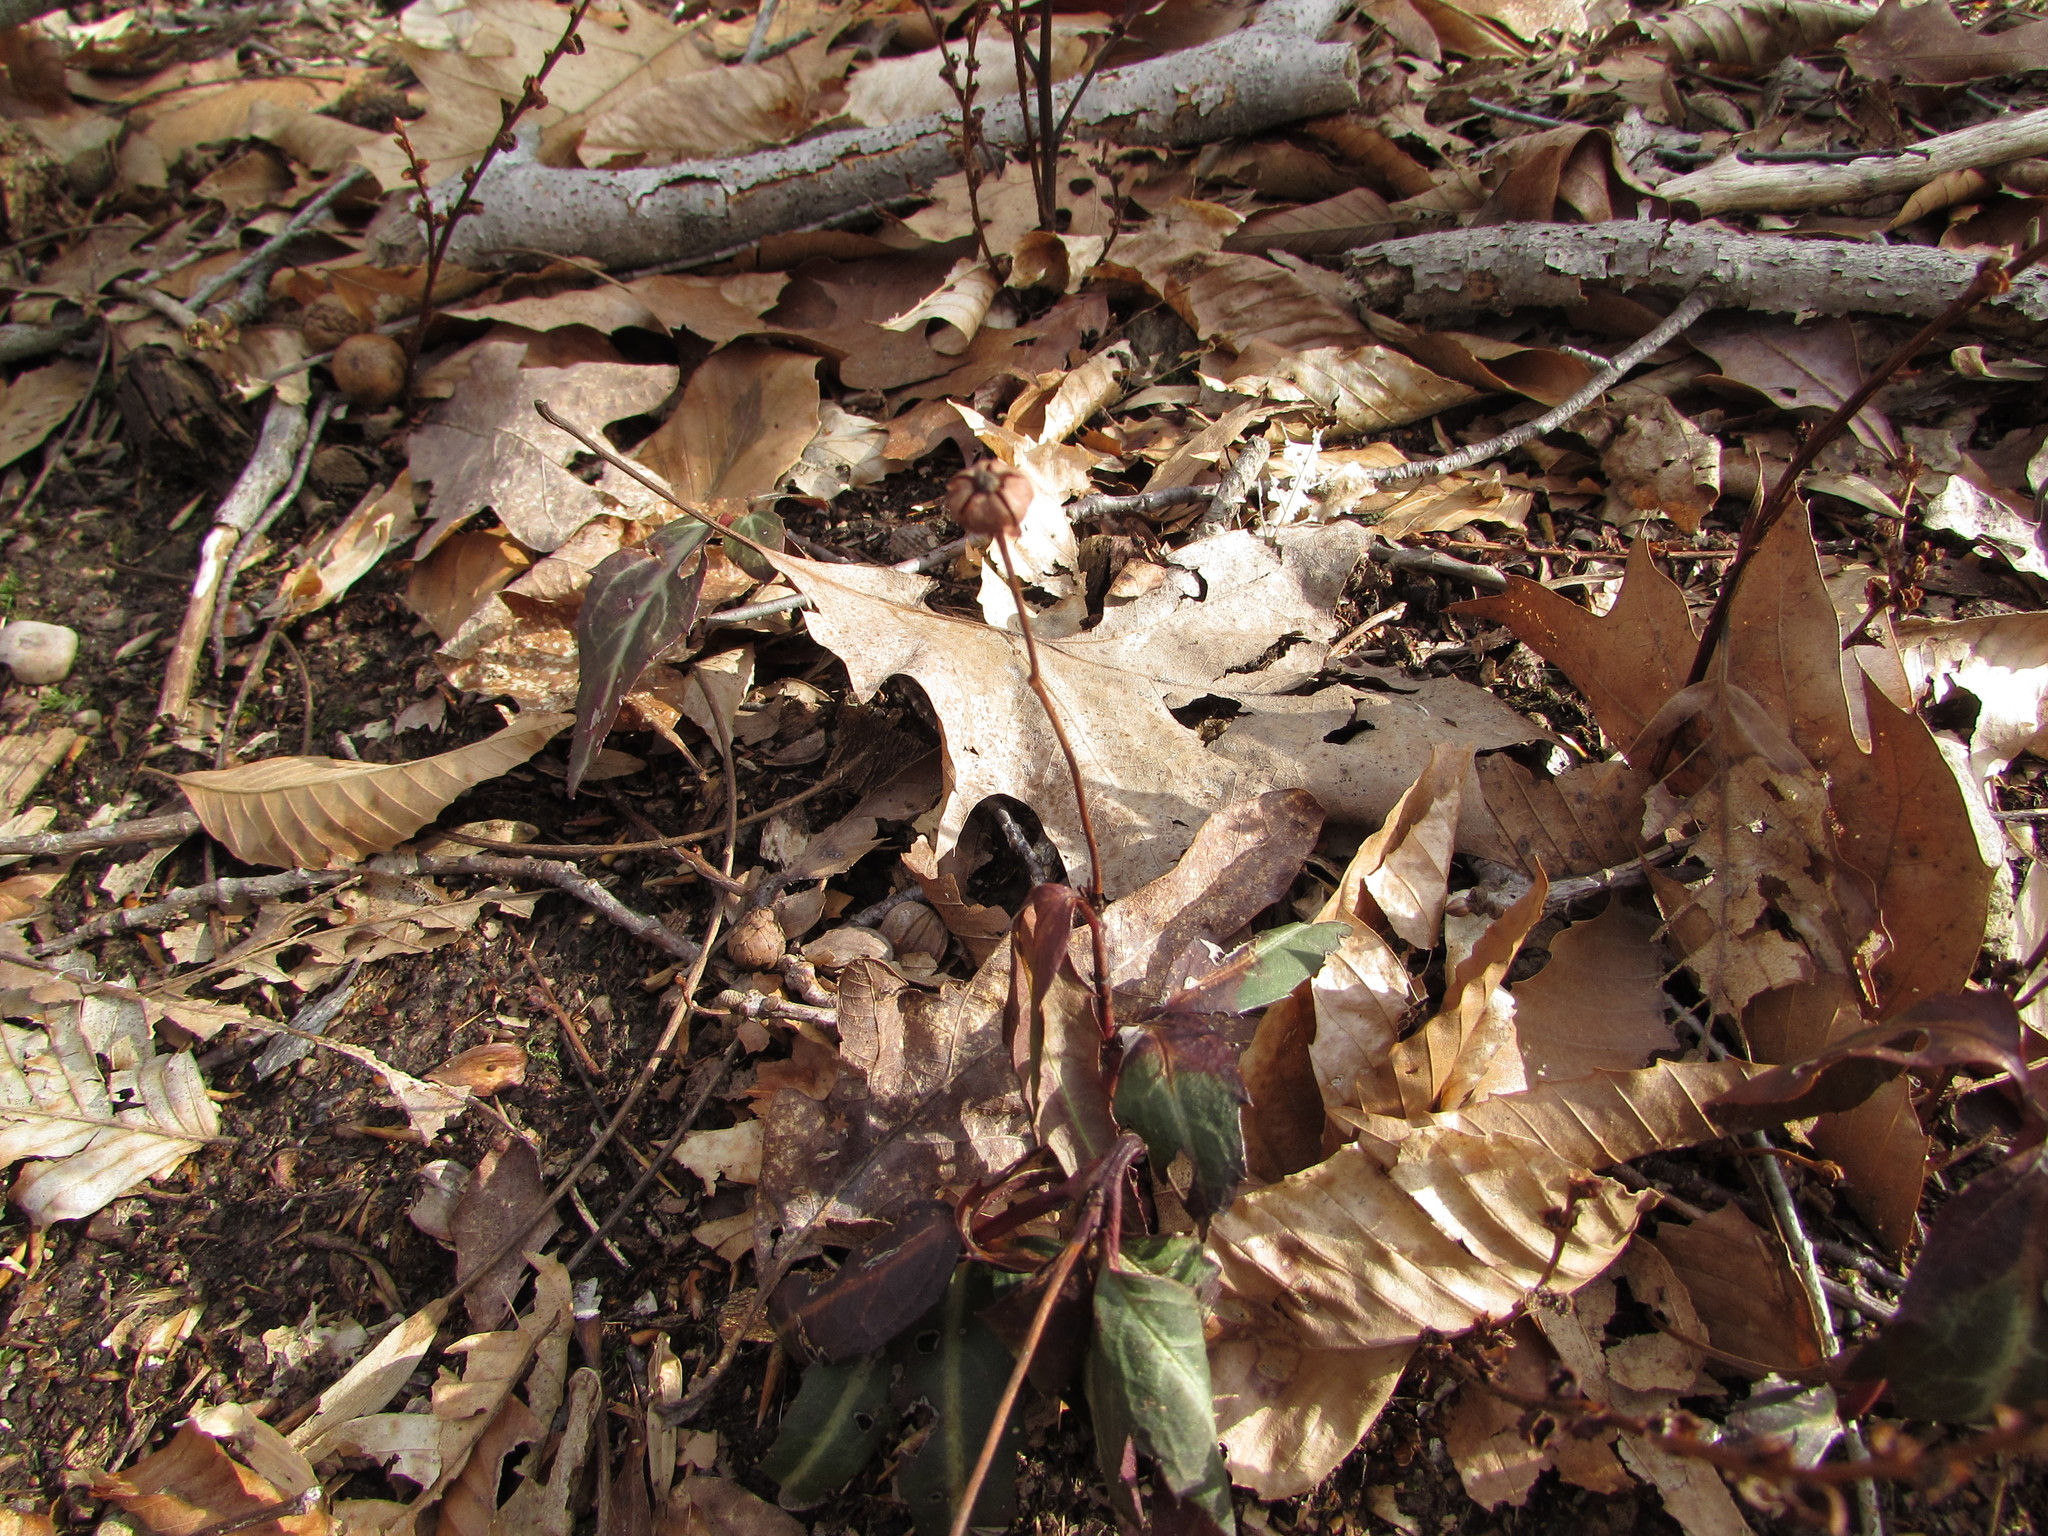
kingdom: Plantae
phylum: Tracheophyta
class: Magnoliopsida
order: Ericales
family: Ericaceae
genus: Chimaphila
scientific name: Chimaphila maculata
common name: Spotted pipsissewa
